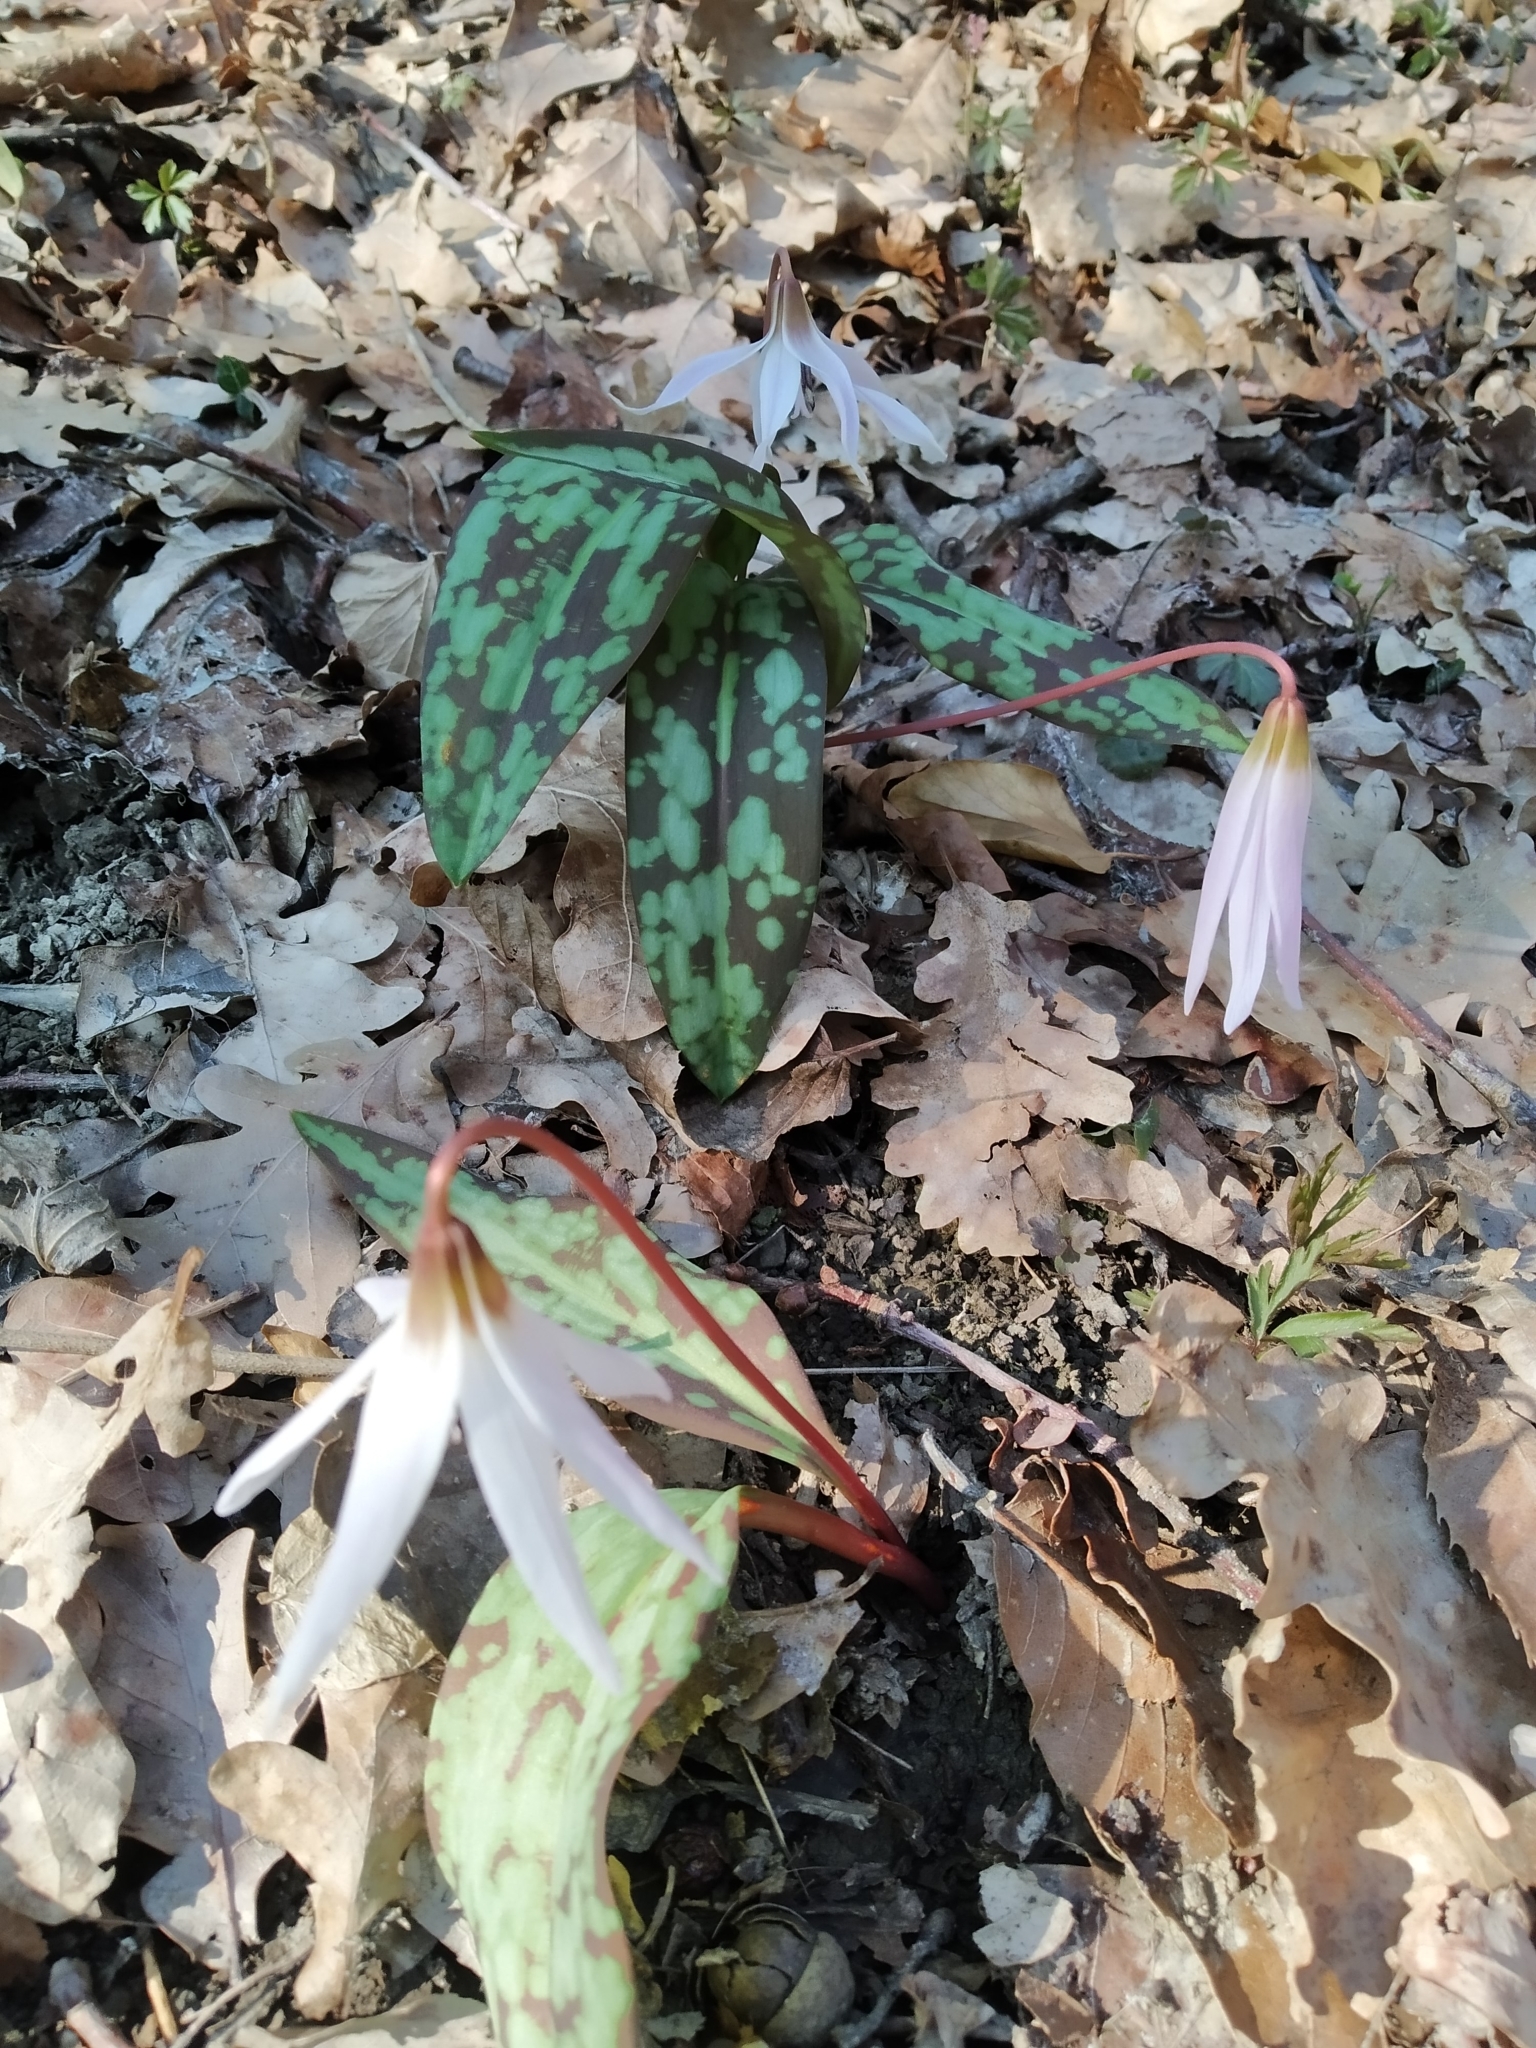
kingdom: Plantae
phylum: Tracheophyta
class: Liliopsida
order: Liliales
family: Liliaceae
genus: Erythronium
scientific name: Erythronium dens-canis
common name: Dog's-tooth-violet
